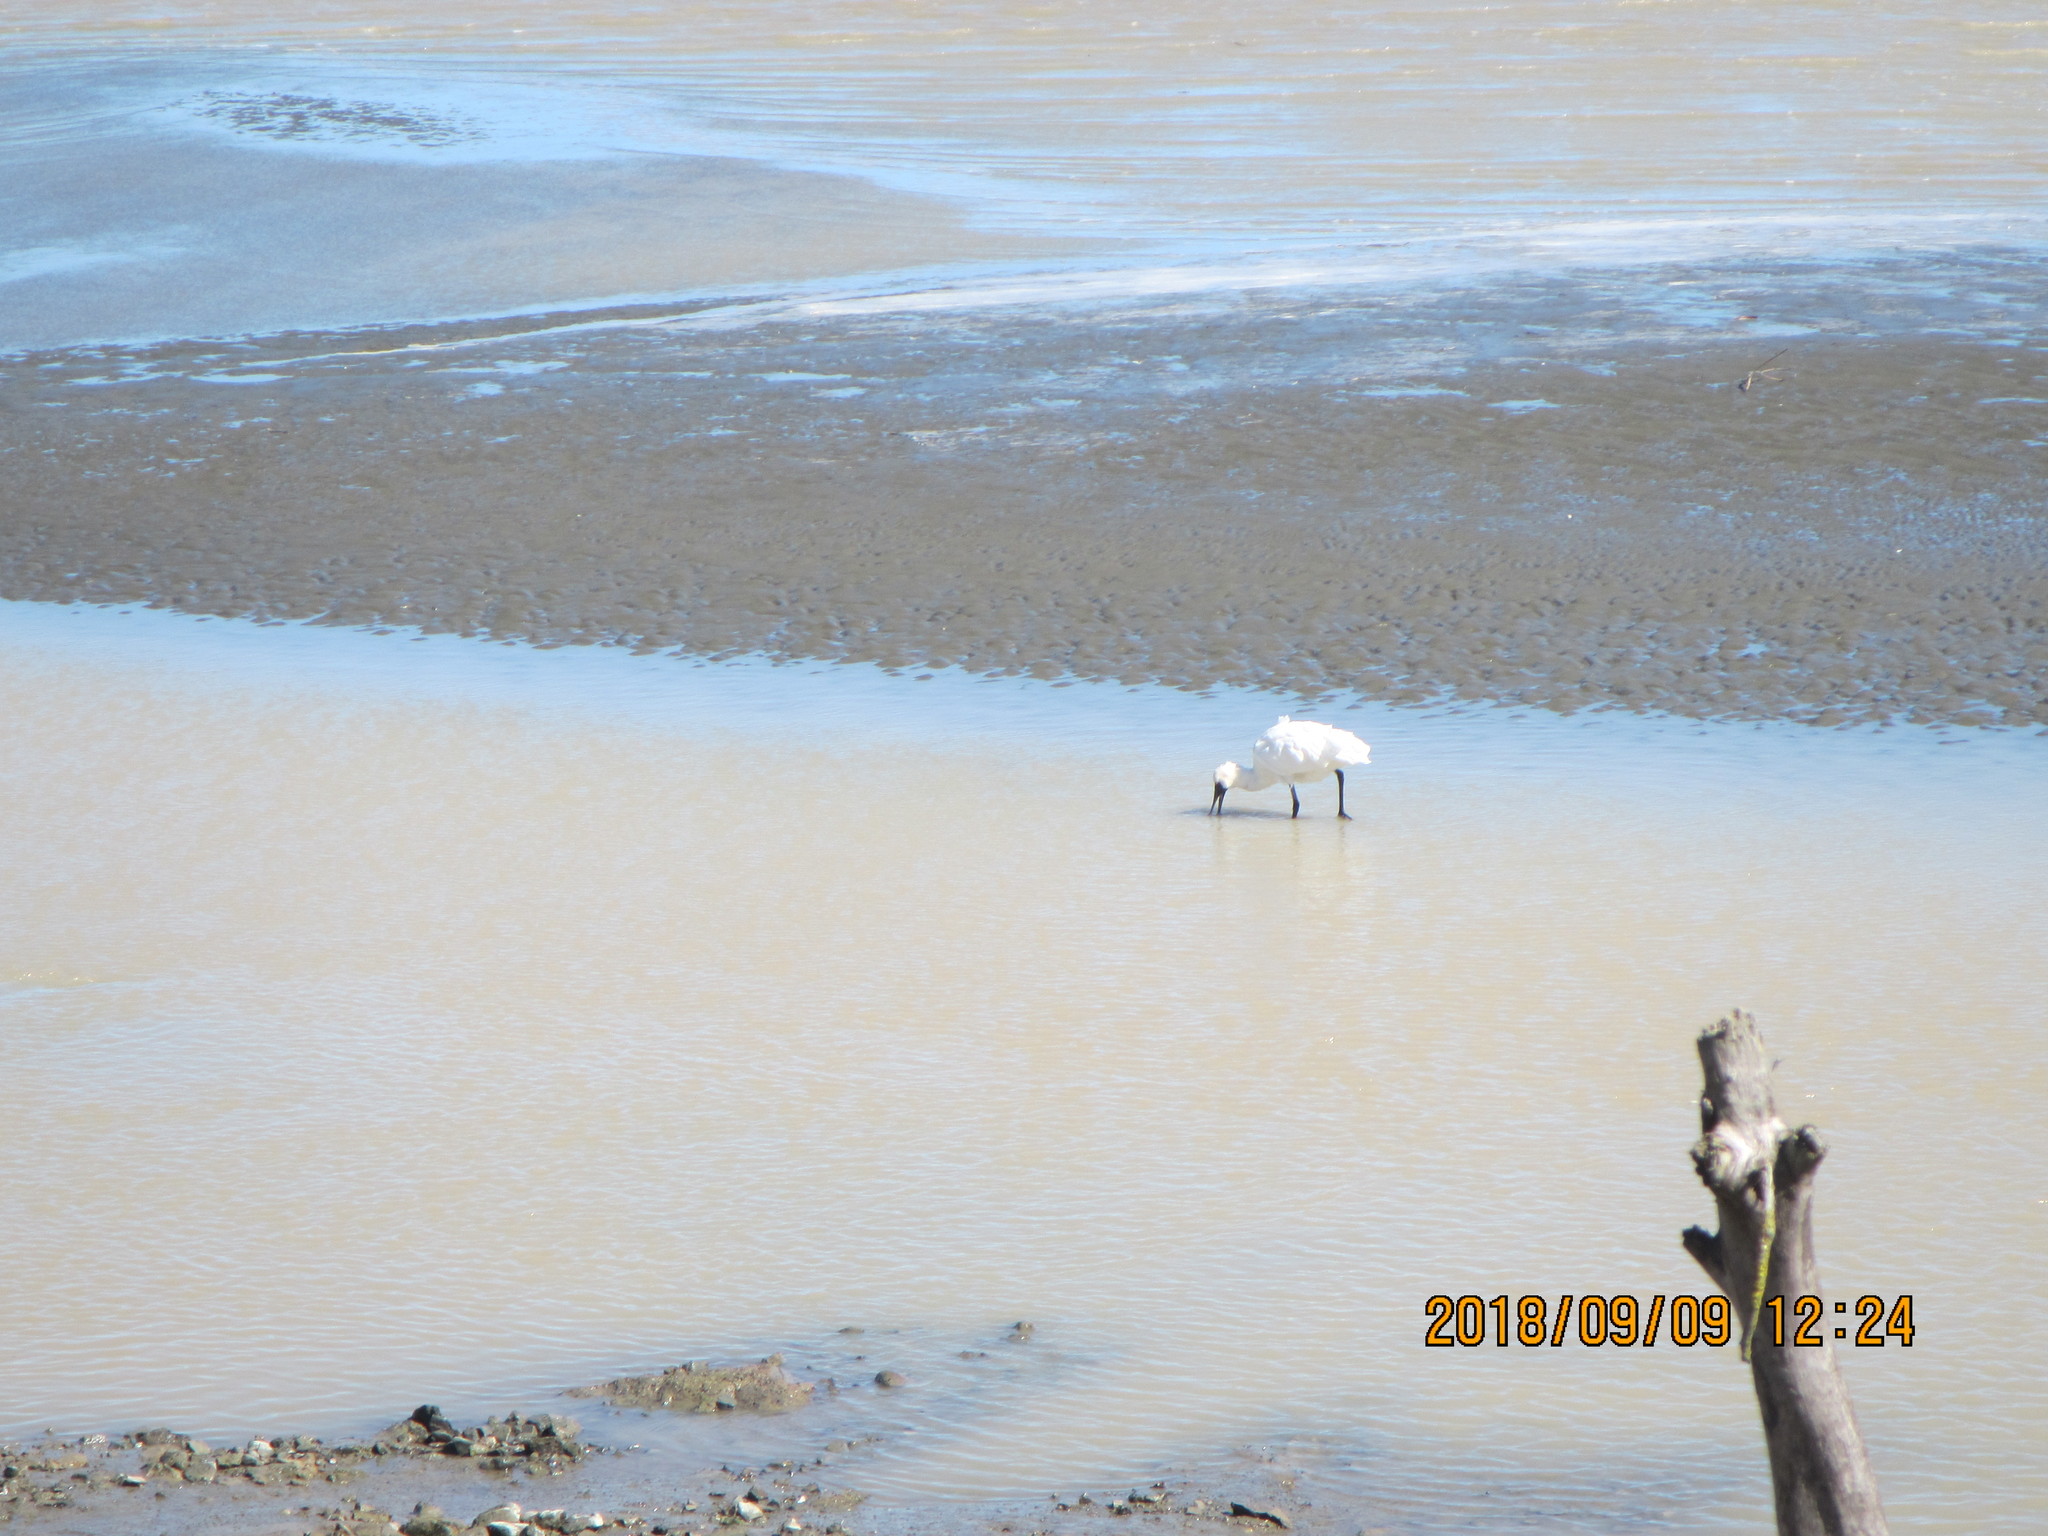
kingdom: Animalia
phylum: Chordata
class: Aves
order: Pelecaniformes
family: Threskiornithidae
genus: Platalea
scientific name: Platalea regia
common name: Royal spoonbill
